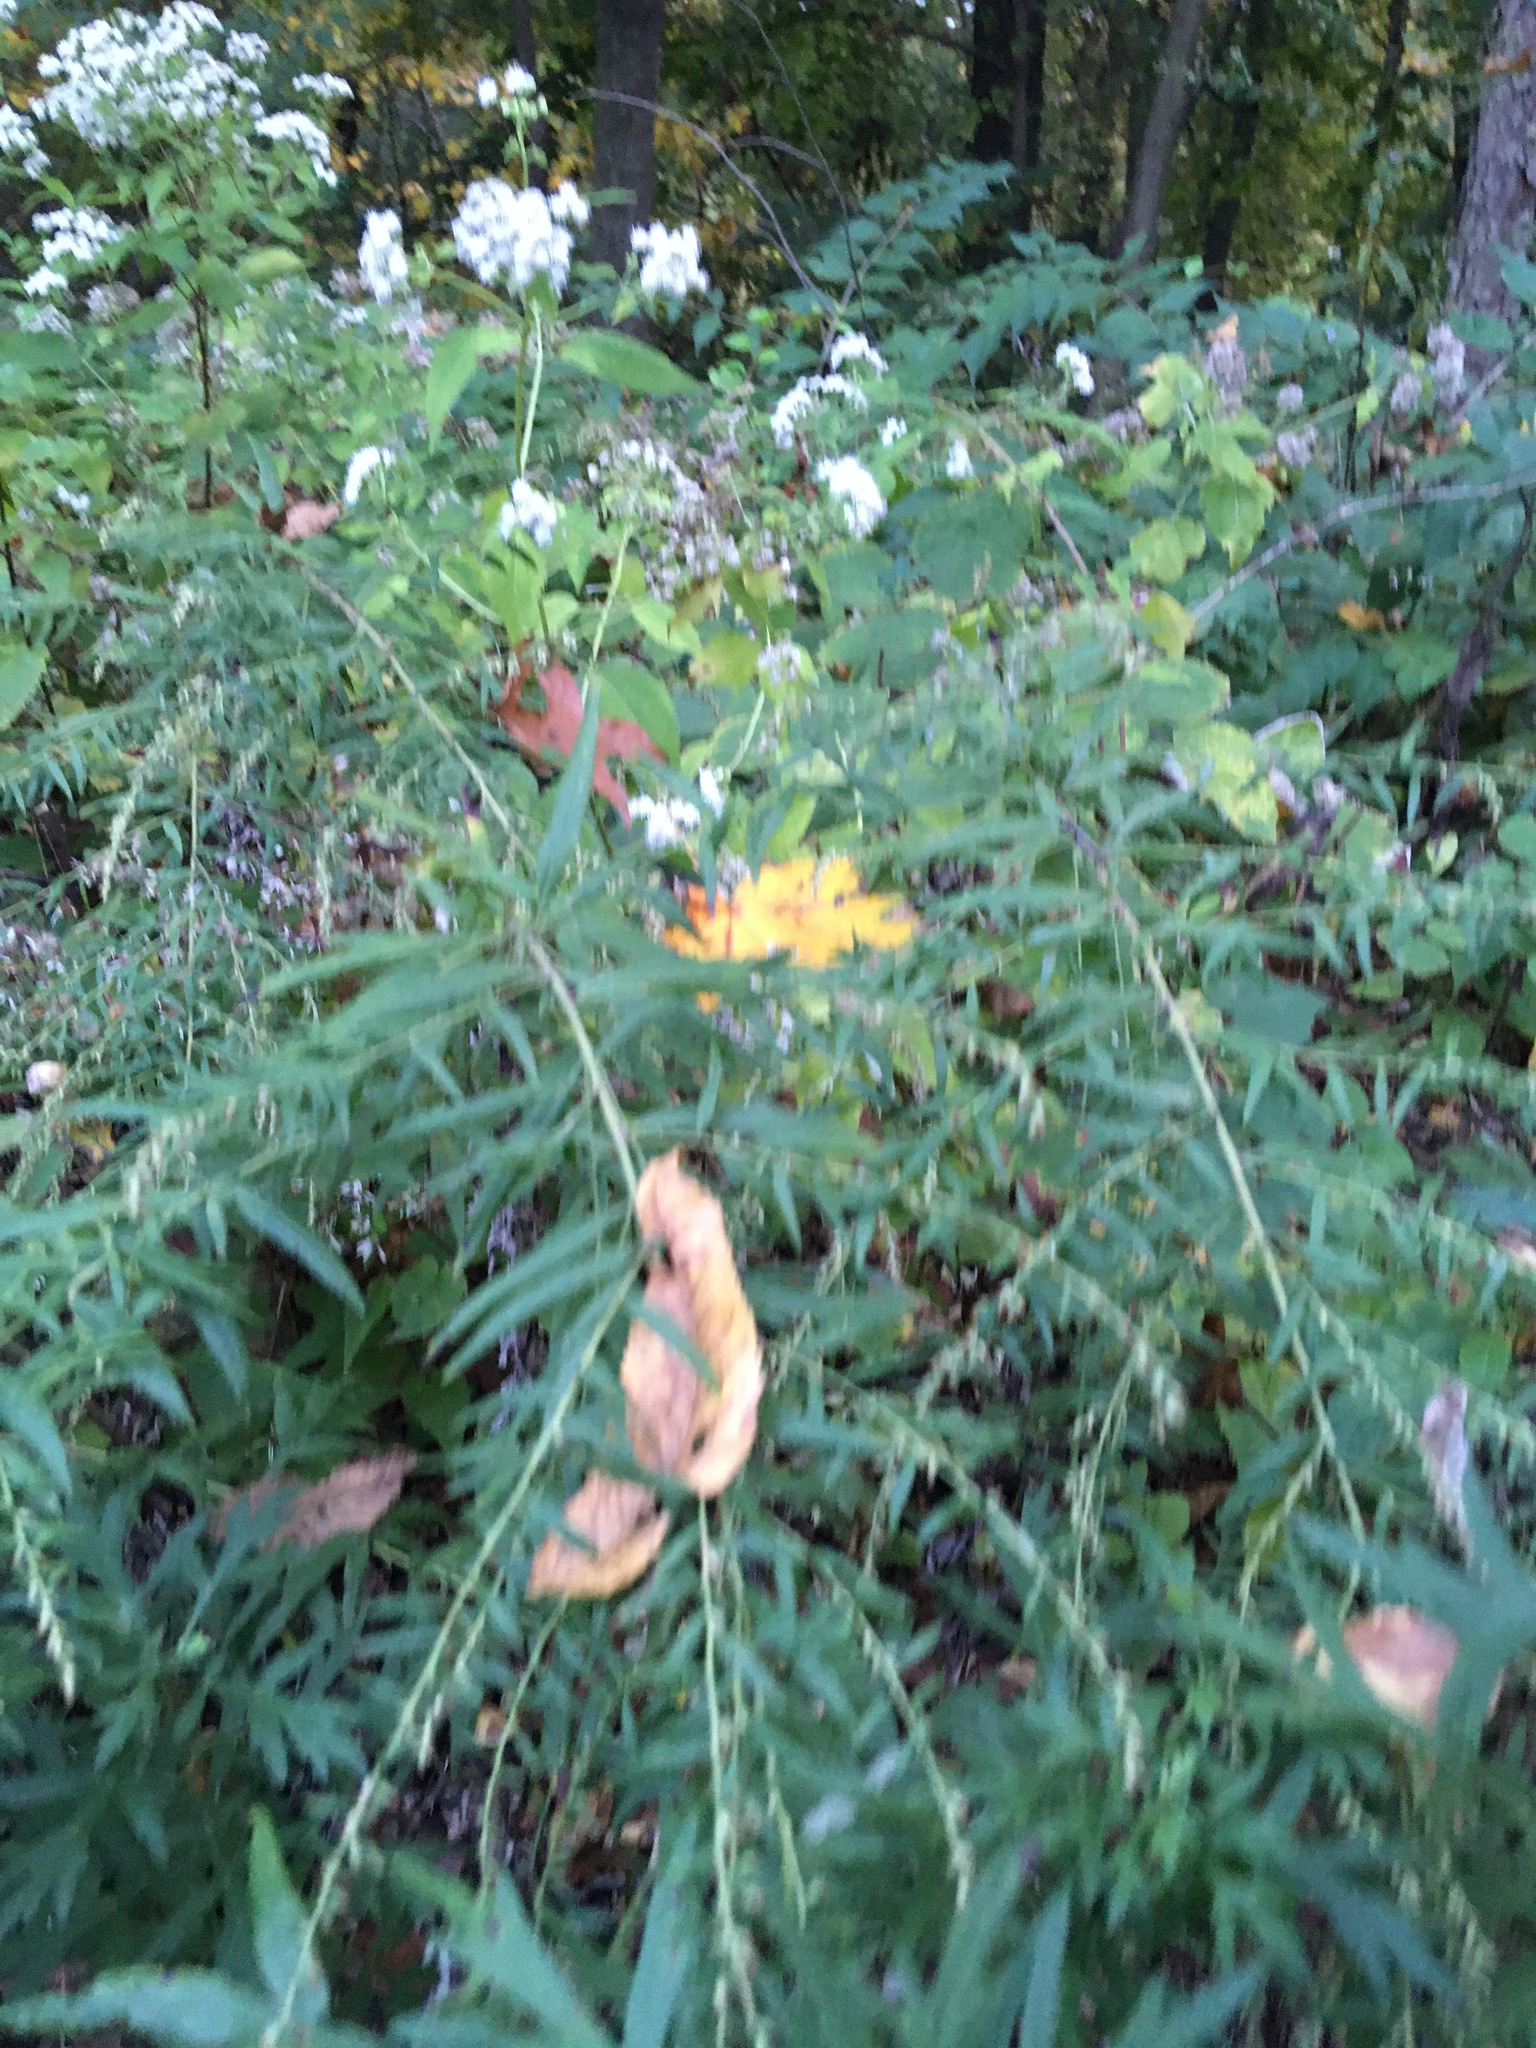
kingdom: Plantae
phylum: Tracheophyta
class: Magnoliopsida
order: Asterales
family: Asteraceae
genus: Artemisia
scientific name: Artemisia vulgaris
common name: Mugwort
